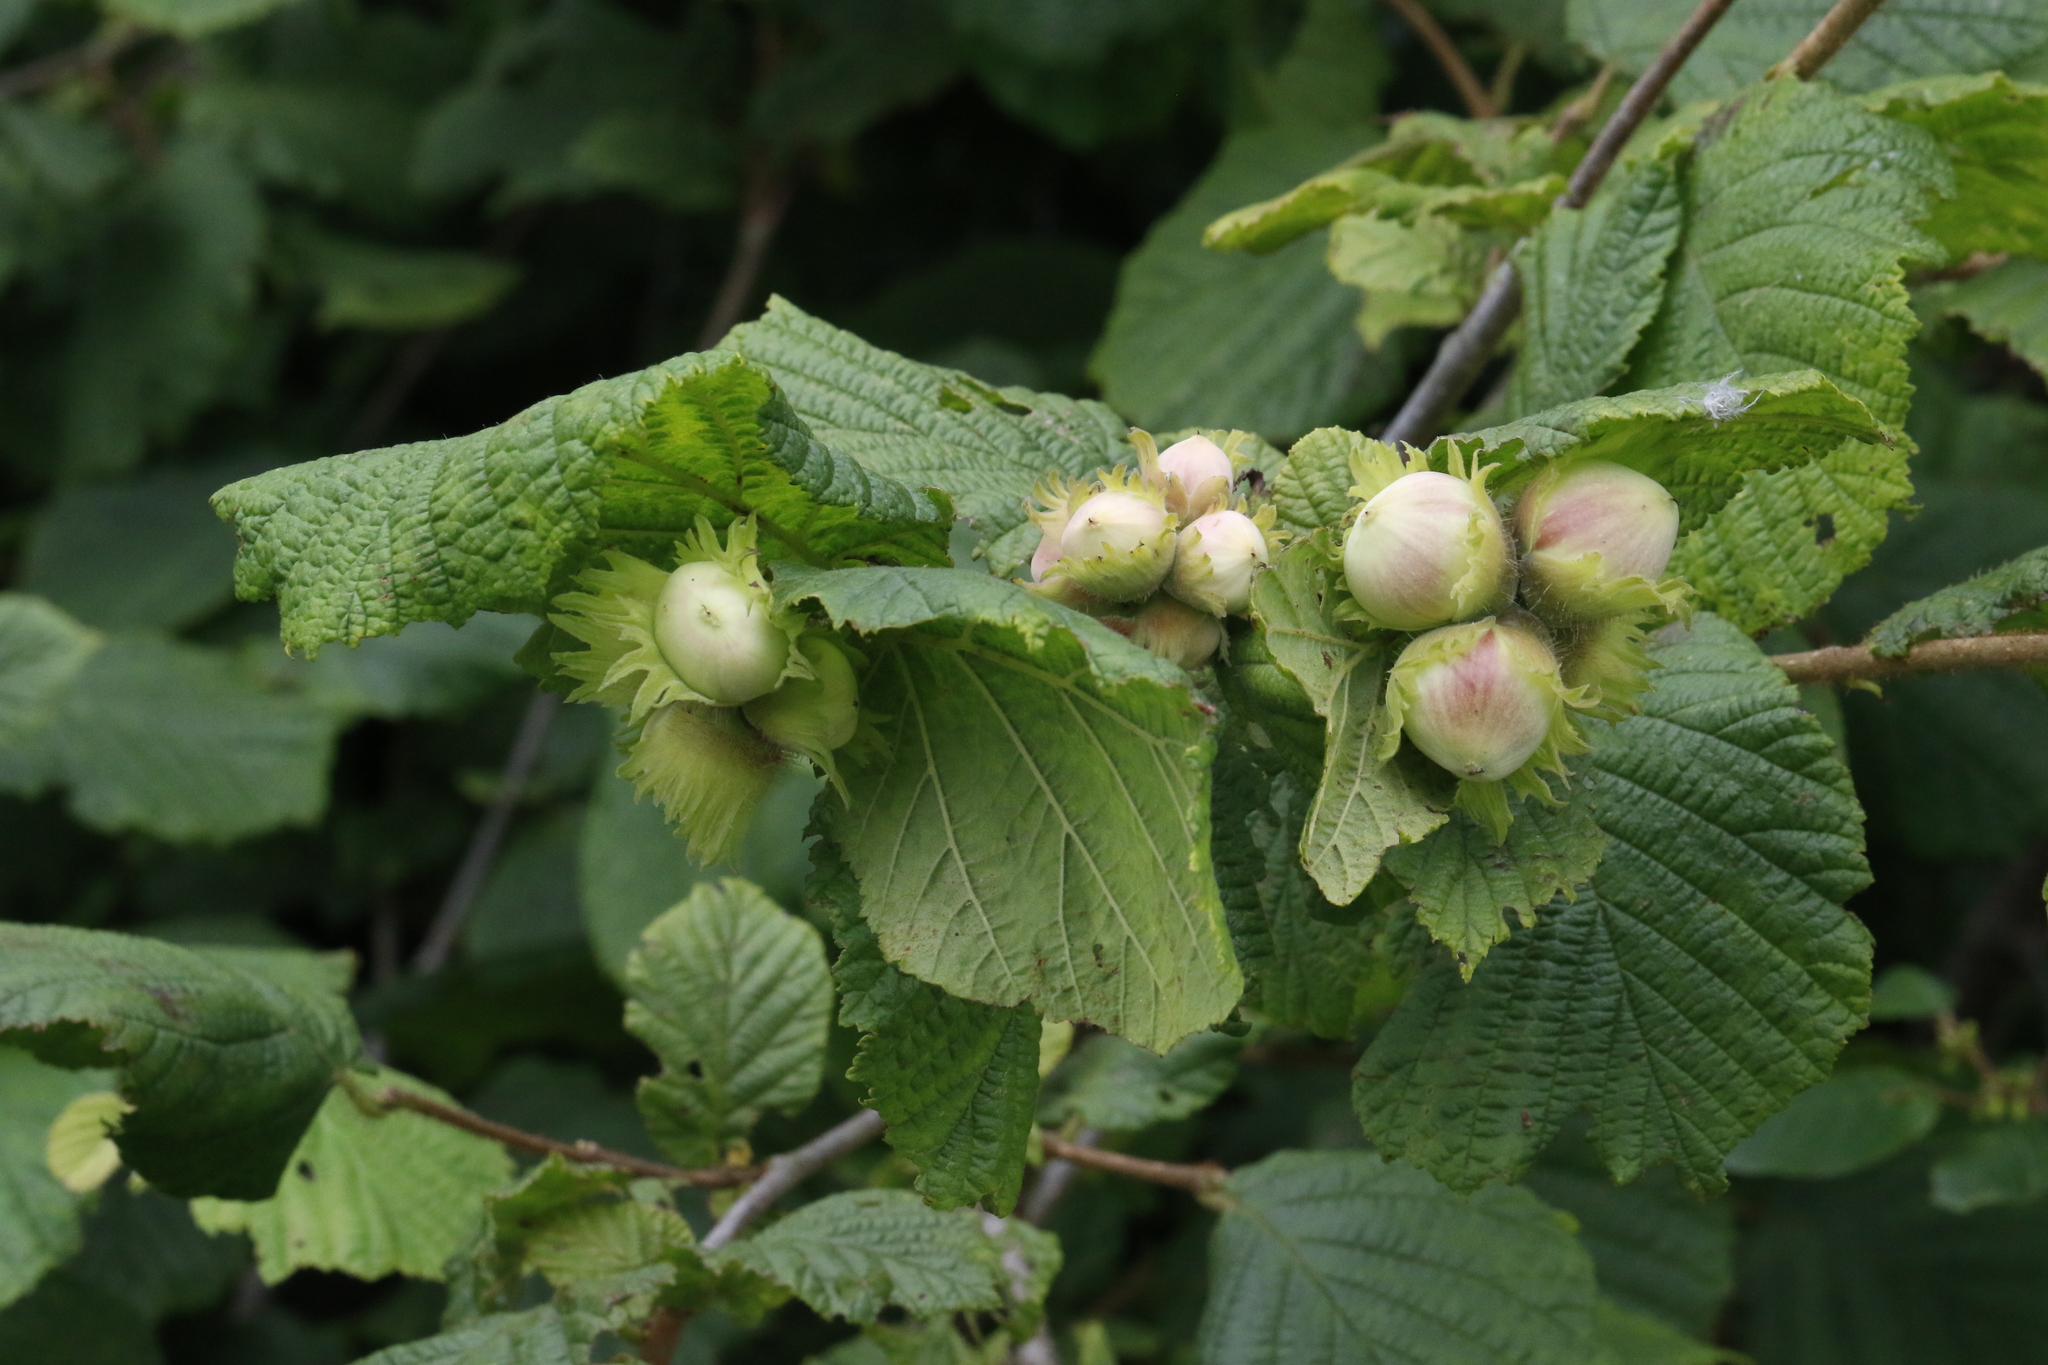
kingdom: Plantae
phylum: Tracheophyta
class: Magnoliopsida
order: Fagales
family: Betulaceae
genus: Corylus
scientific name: Corylus avellana
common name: European hazel
